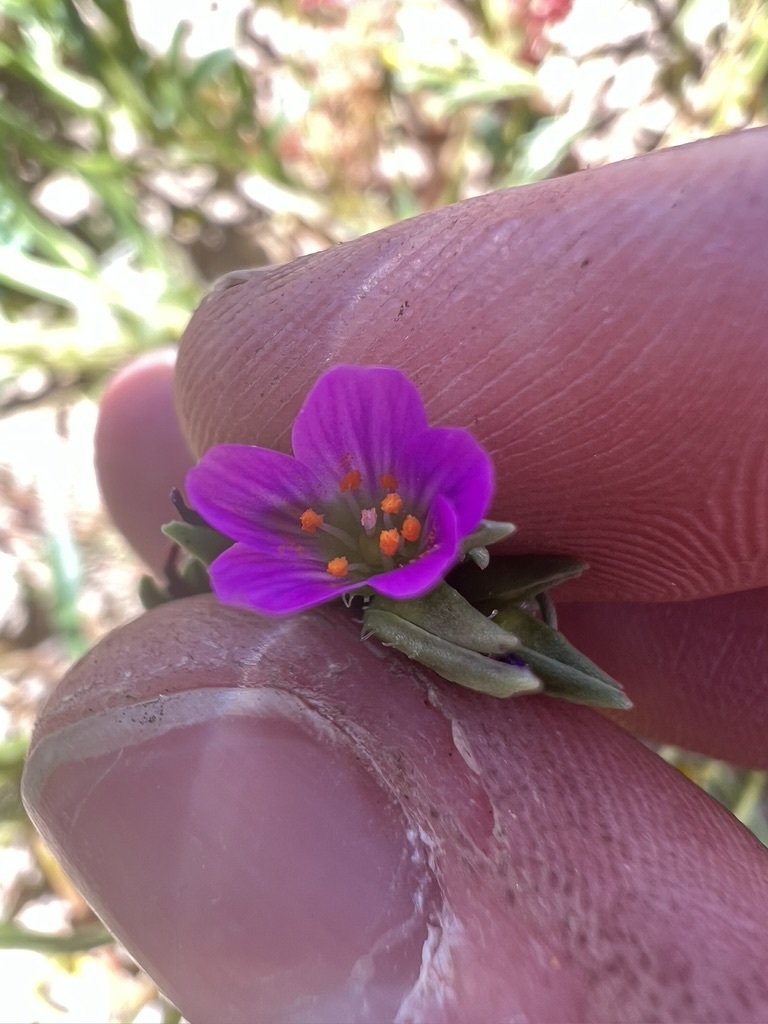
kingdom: Plantae
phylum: Tracheophyta
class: Magnoliopsida
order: Caryophyllales
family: Montiaceae
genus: Calandrinia
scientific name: Calandrinia menziesii
